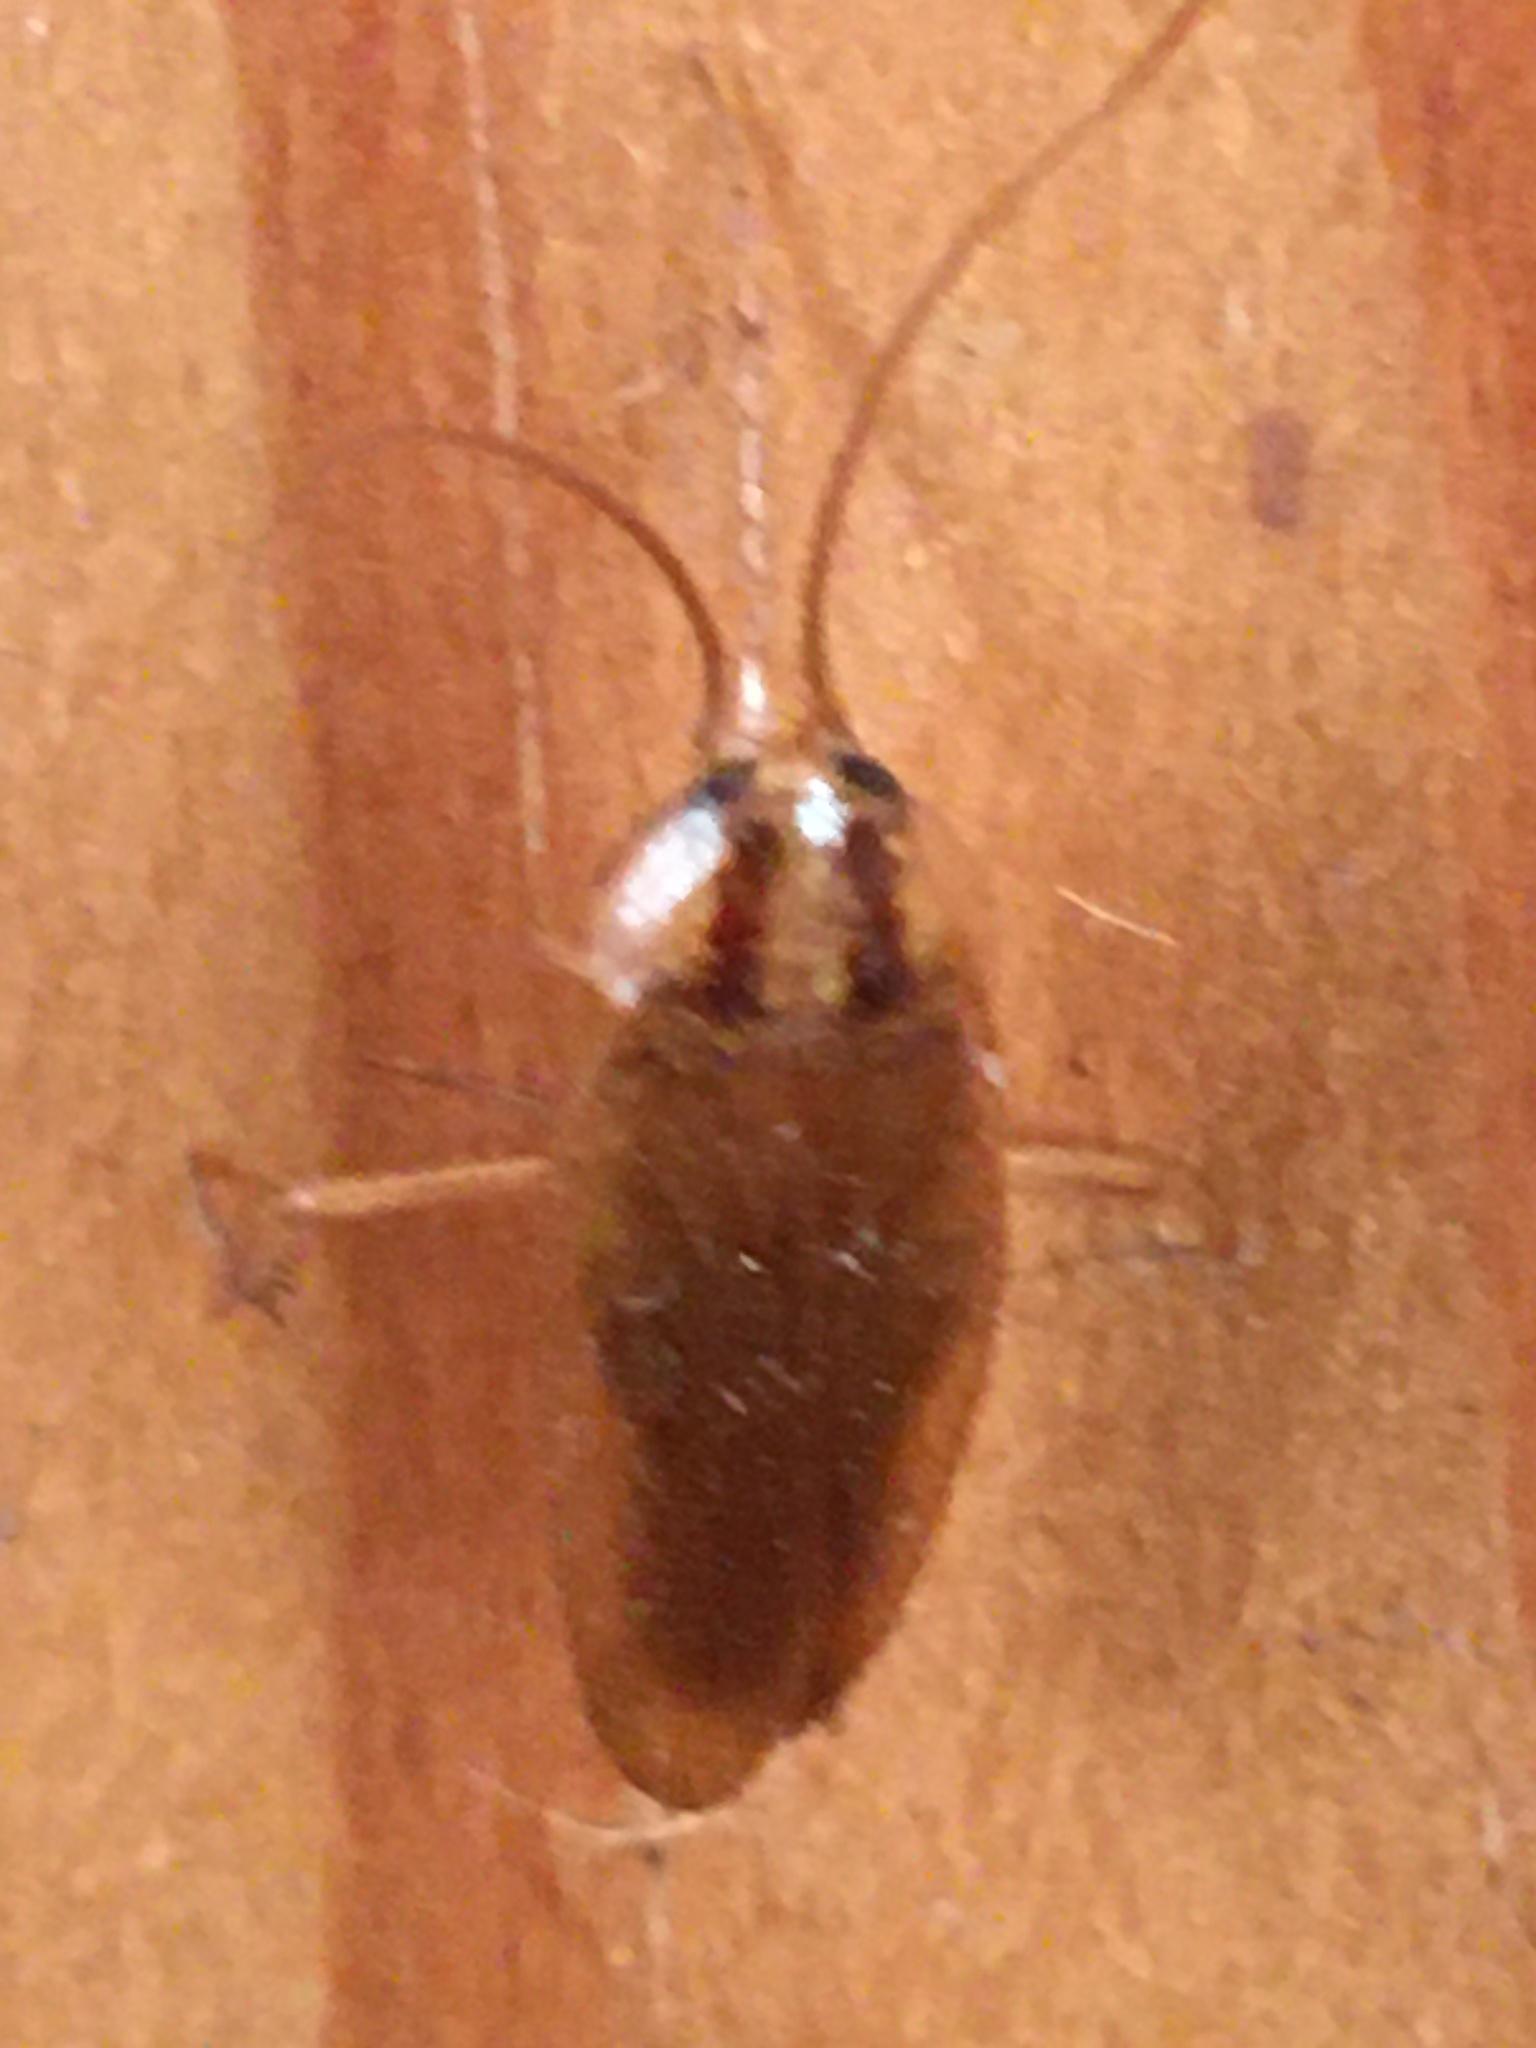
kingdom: Animalia
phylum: Arthropoda
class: Insecta
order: Blattodea
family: Ectobiidae
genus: Blattella
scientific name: Blattella germanica
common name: German cockroach
